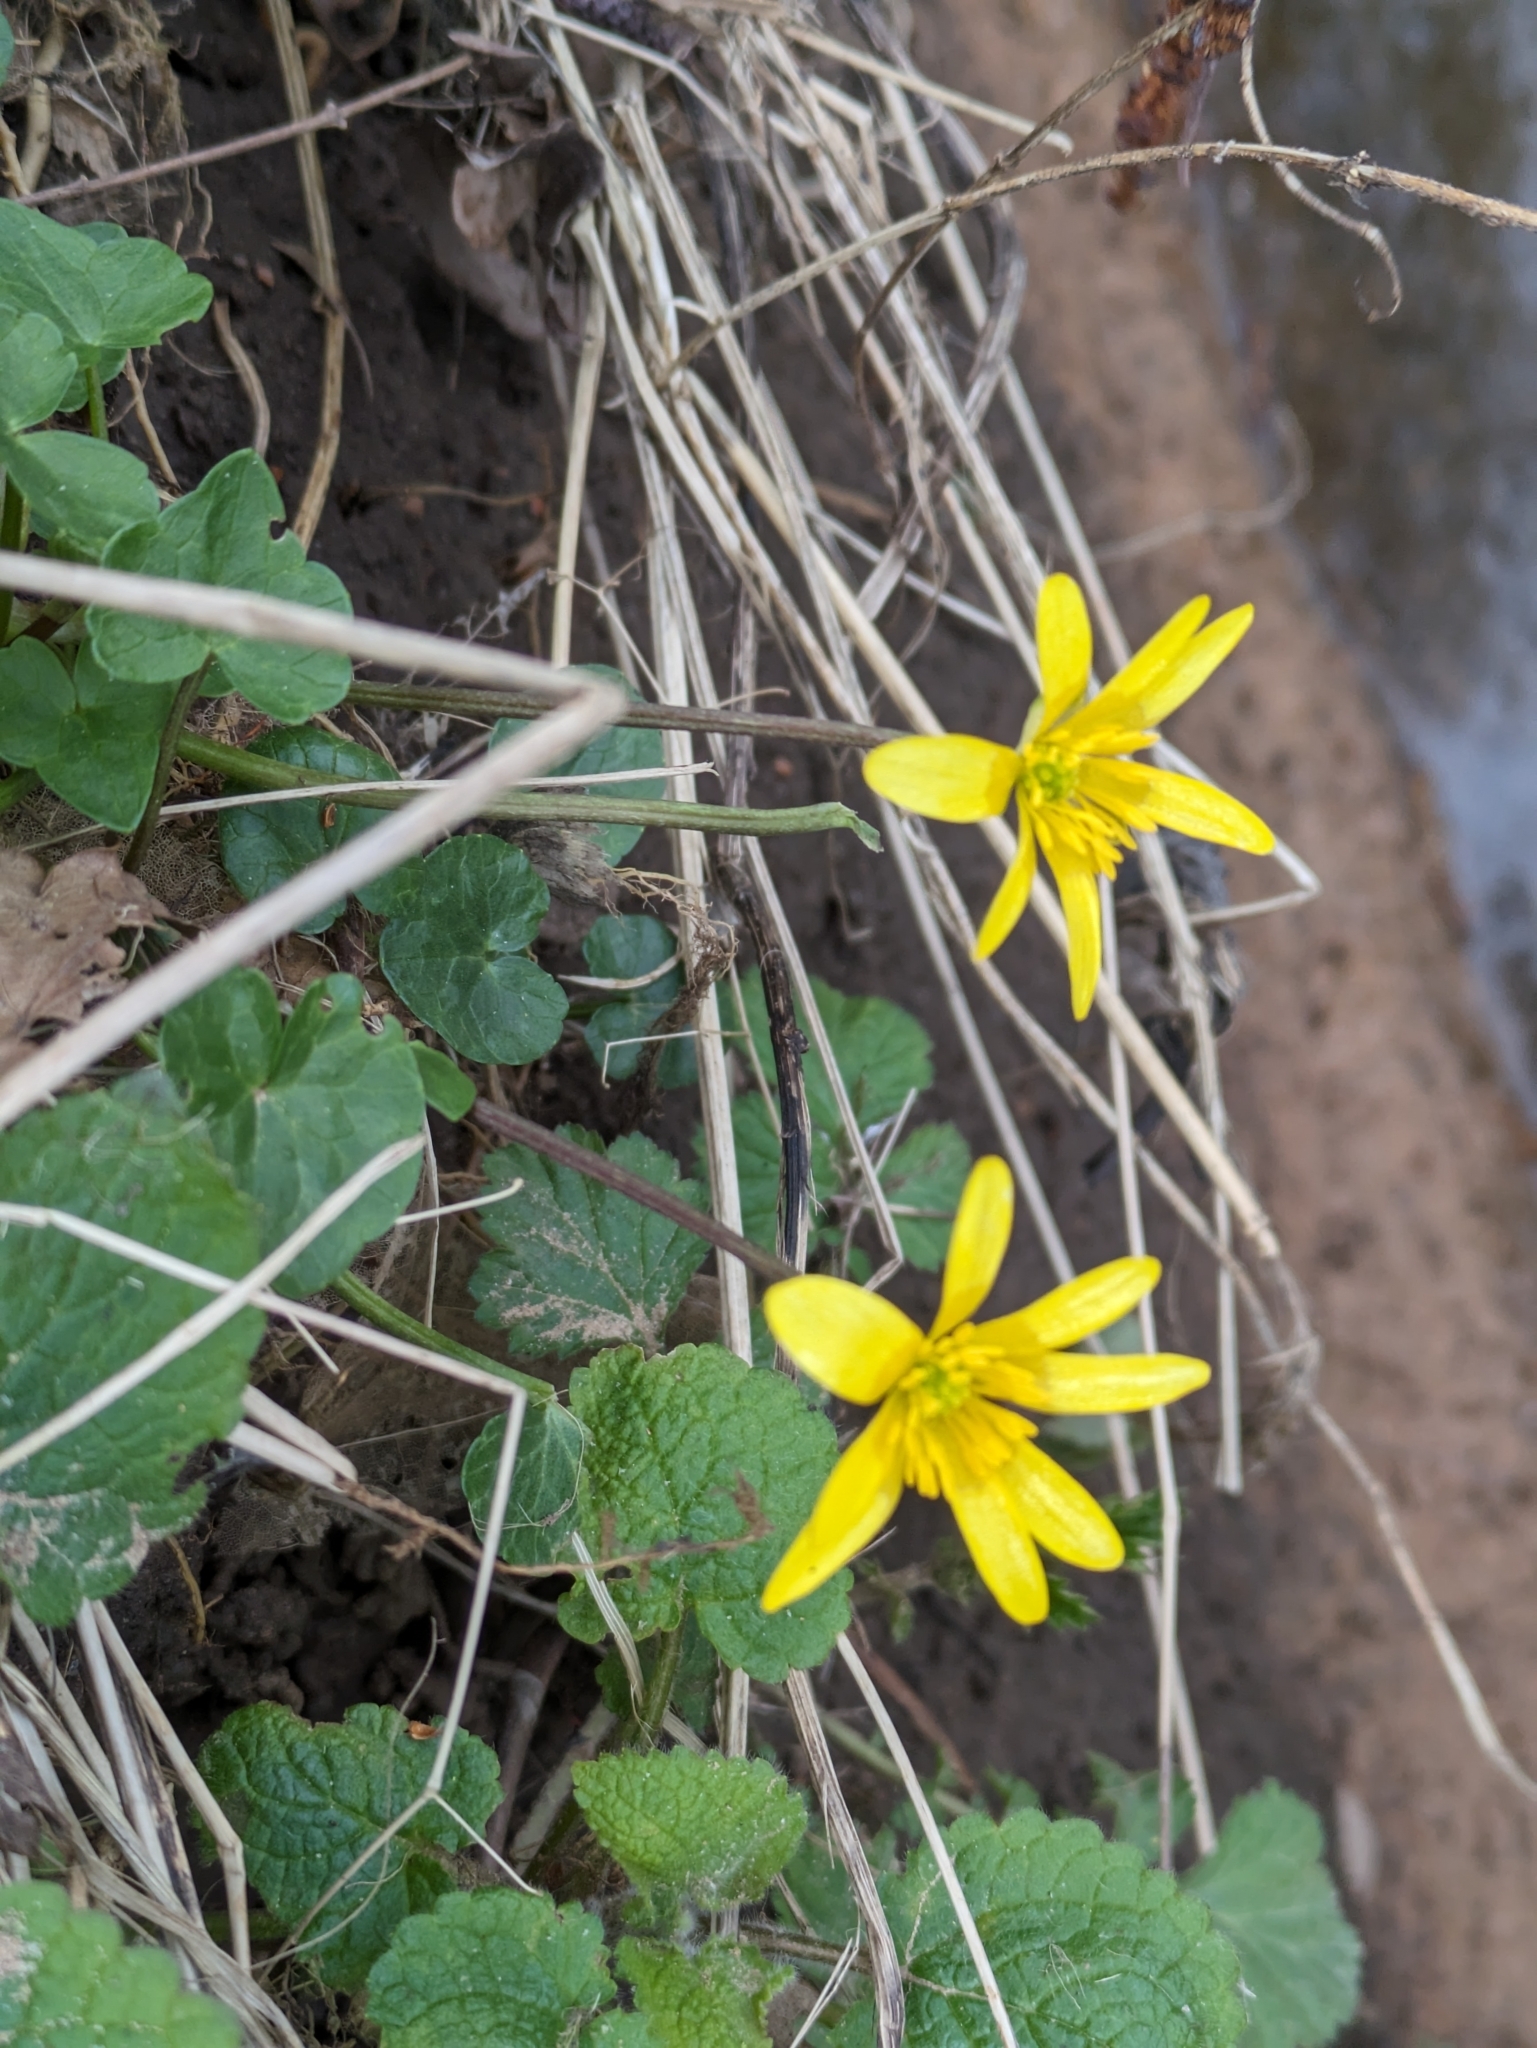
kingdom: Plantae
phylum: Tracheophyta
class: Magnoliopsida
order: Ranunculales
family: Ranunculaceae
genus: Ficaria
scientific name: Ficaria verna
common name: Lesser celandine
